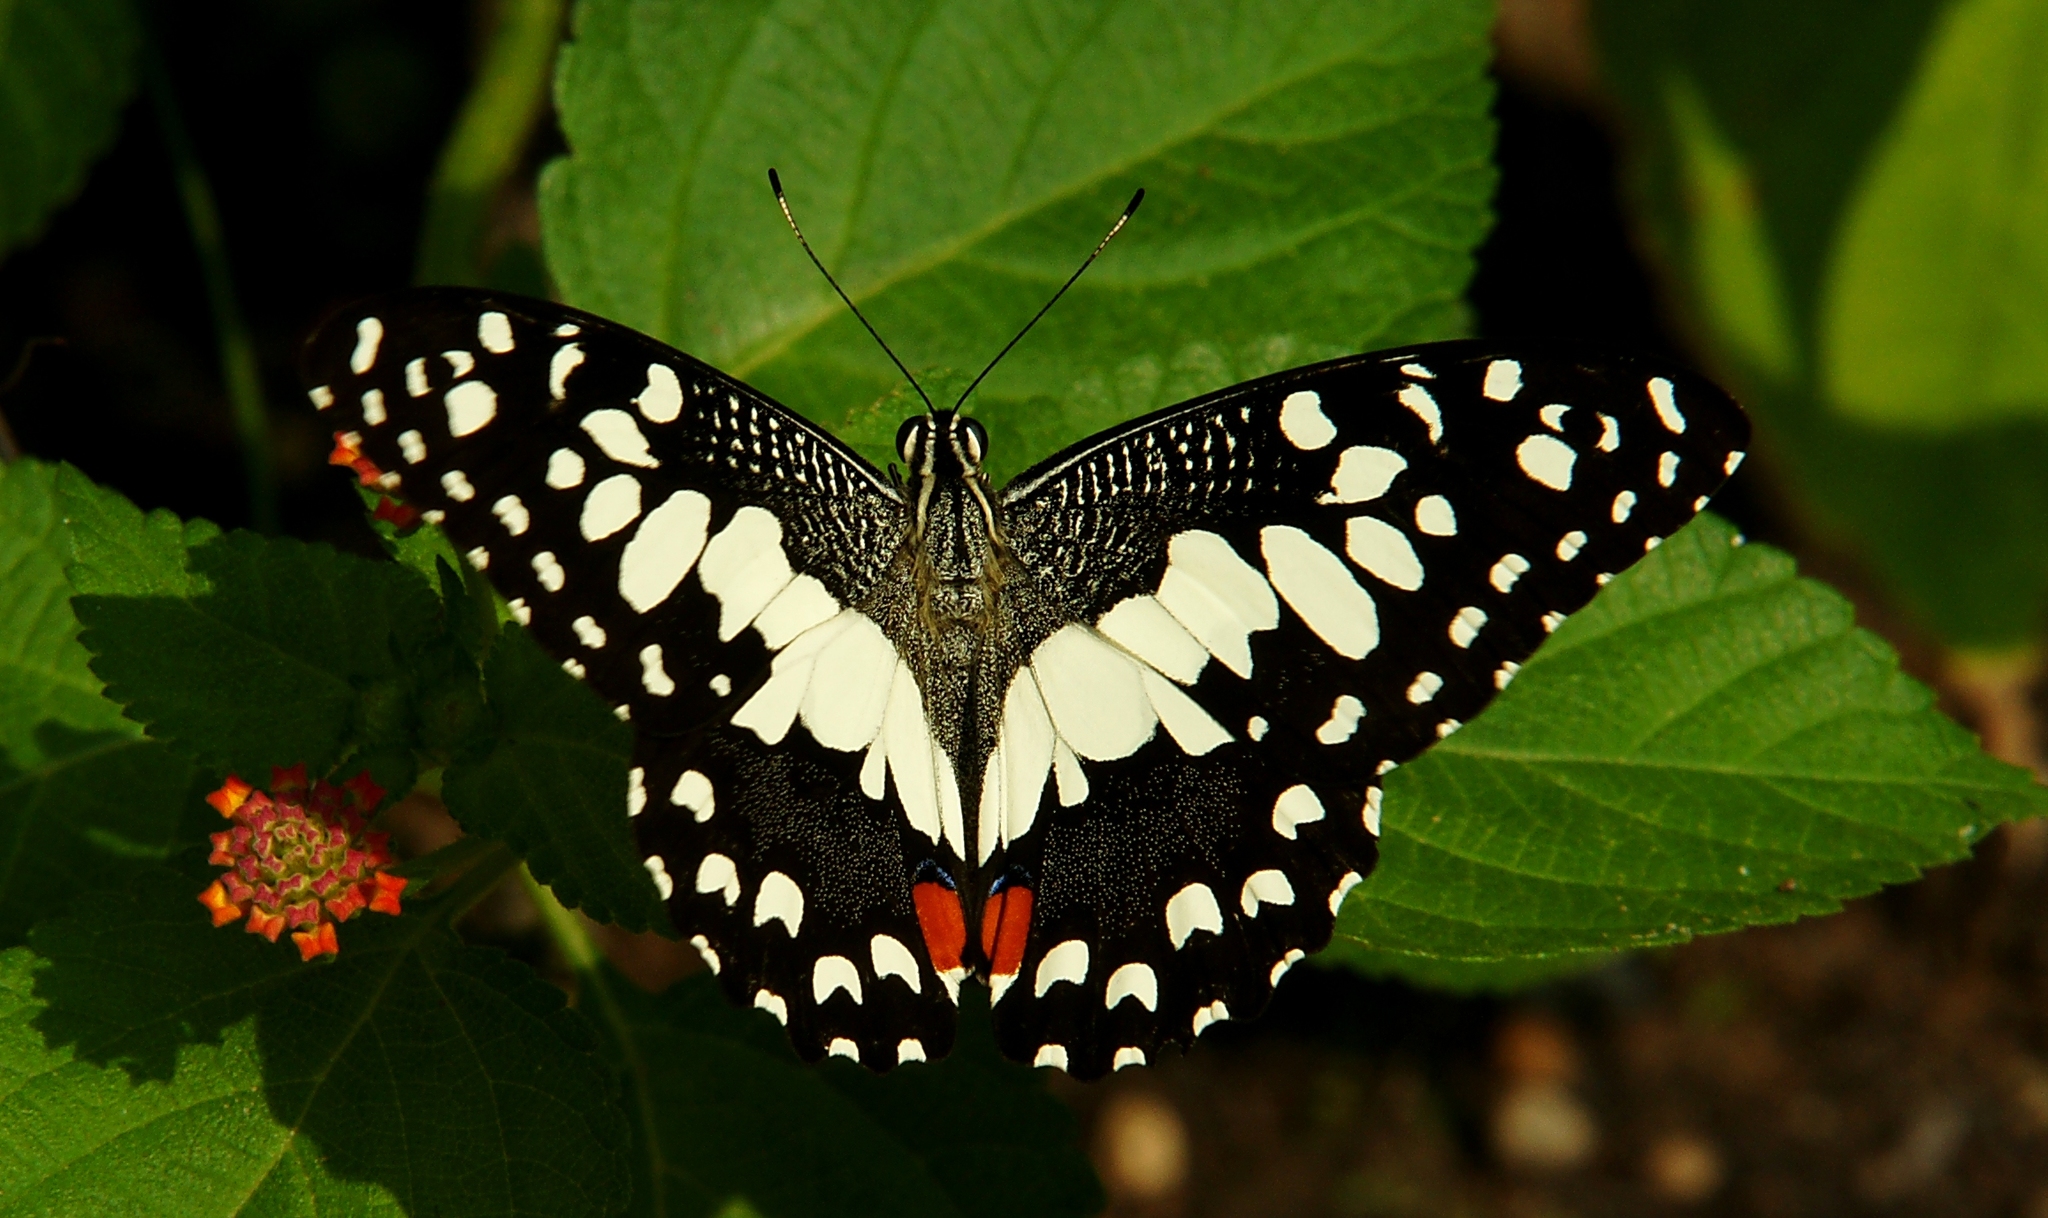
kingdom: Animalia
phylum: Arthropoda
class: Insecta
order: Lepidoptera
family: Papilionidae
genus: Papilio
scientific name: Papilio demoleus
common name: Lime butterfly
